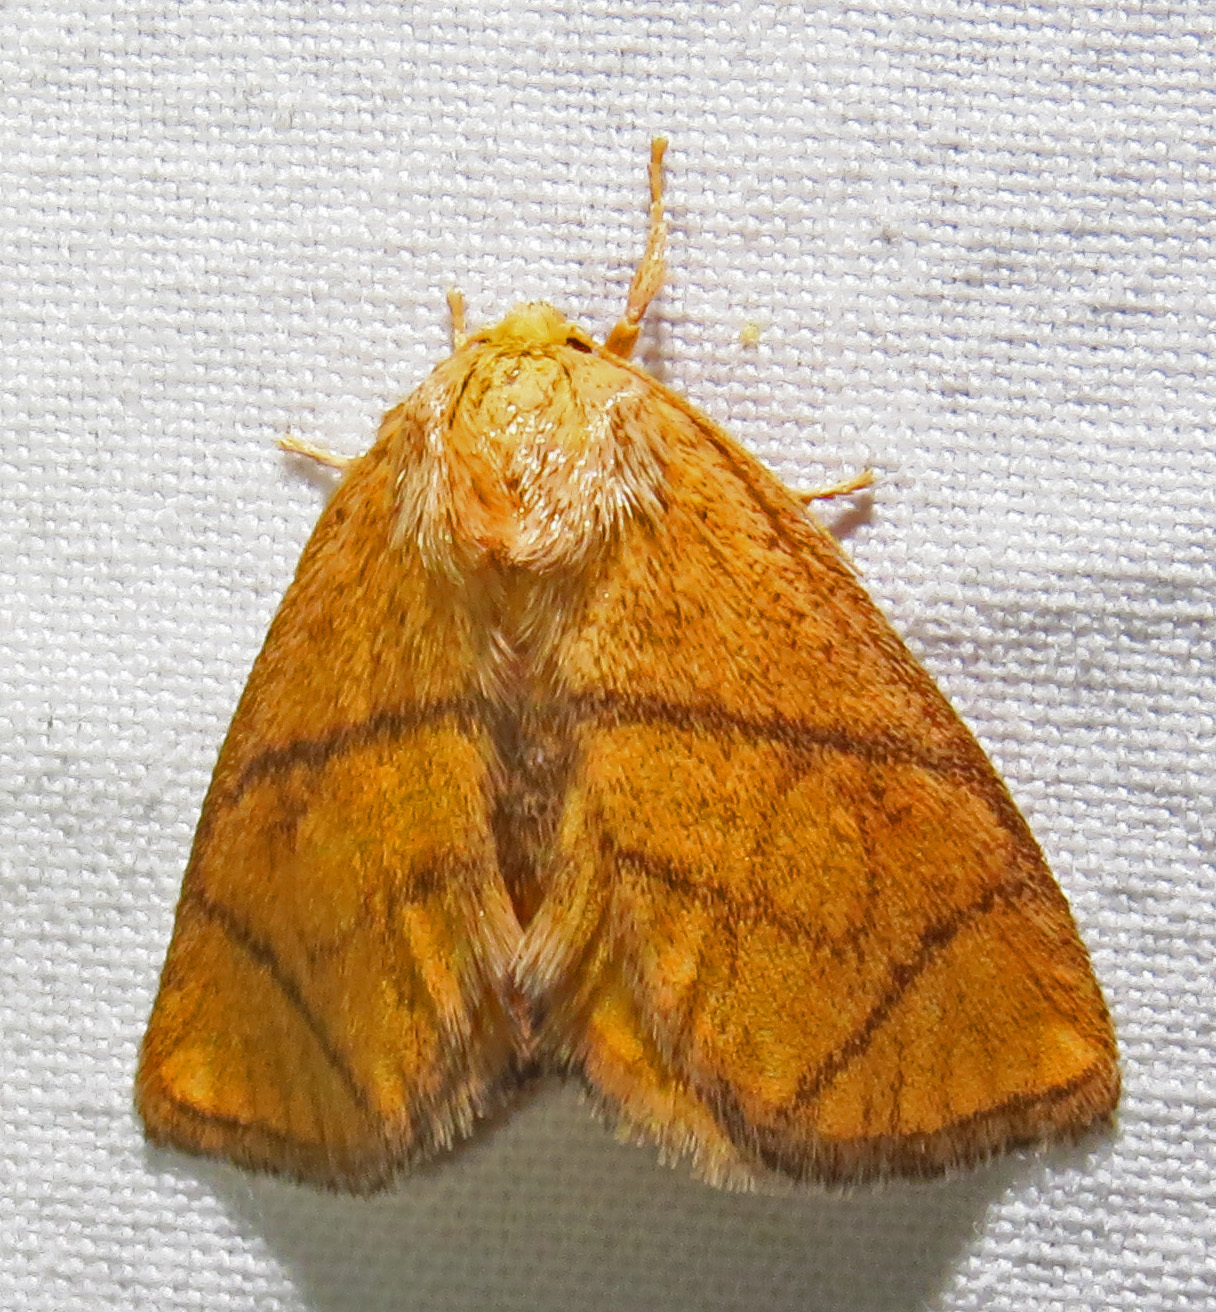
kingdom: Animalia
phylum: Arthropoda
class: Insecta
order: Lepidoptera
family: Limacodidae
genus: Apoda
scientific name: Apoda y-inversa
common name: Yellow-collared slug moth
